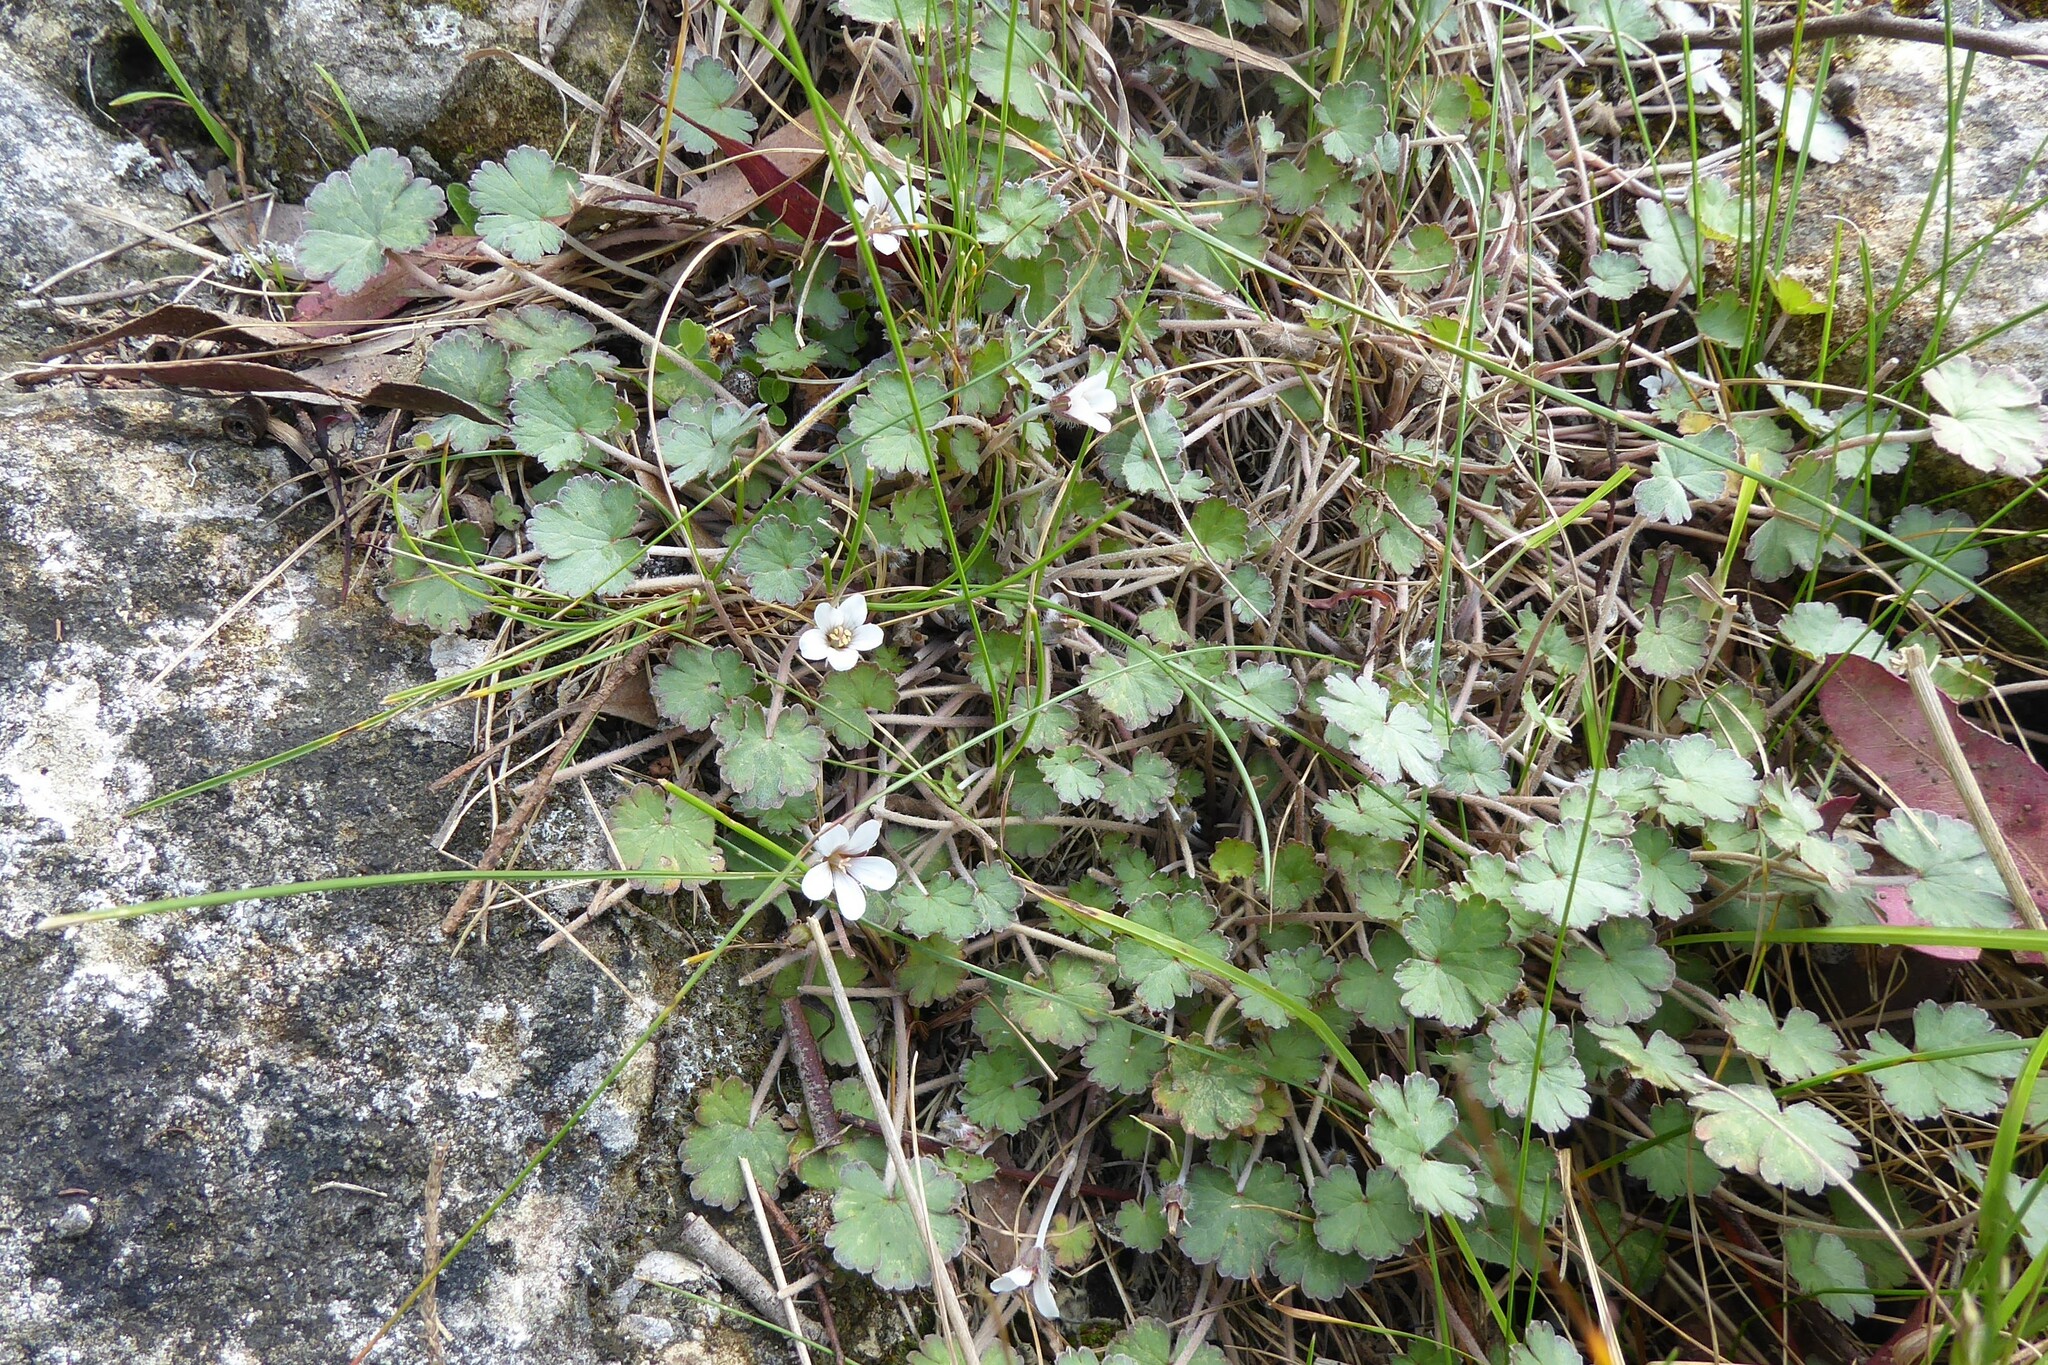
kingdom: Plantae
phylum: Tracheophyta
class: Magnoliopsida
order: Geraniales
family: Geraniaceae
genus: Geranium
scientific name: Geranium socolateum
